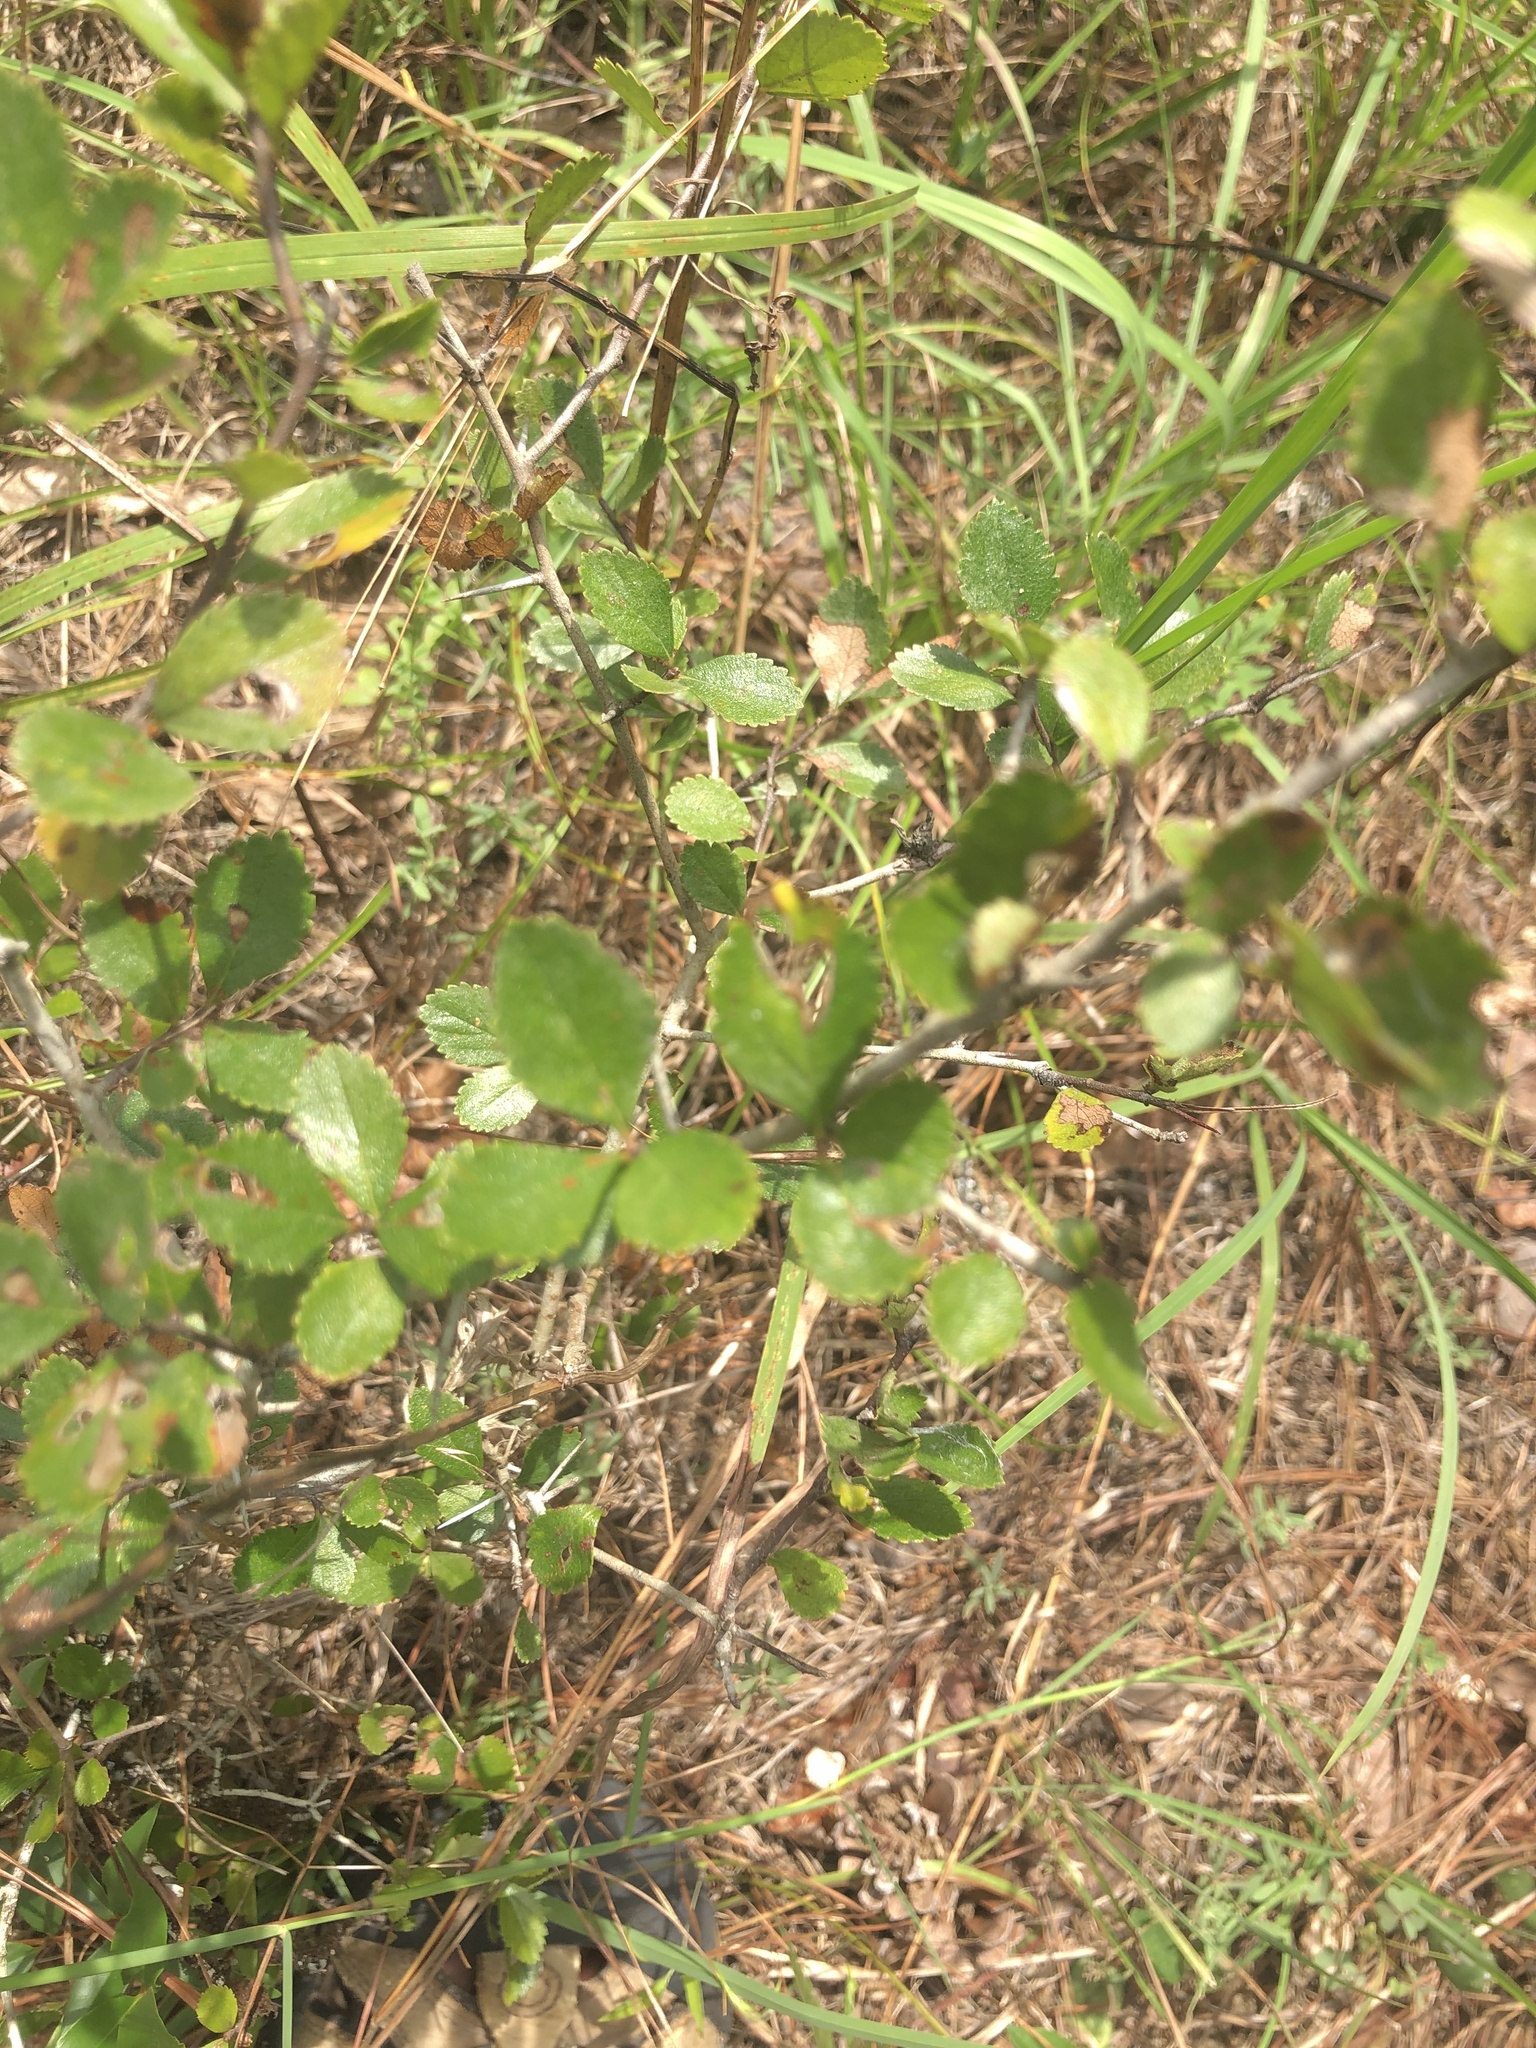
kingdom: Plantae
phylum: Tracheophyta
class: Magnoliopsida
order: Rosales
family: Rosaceae
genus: Crataegus
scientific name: Crataegus uniflora
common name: One-flower hawthorn
